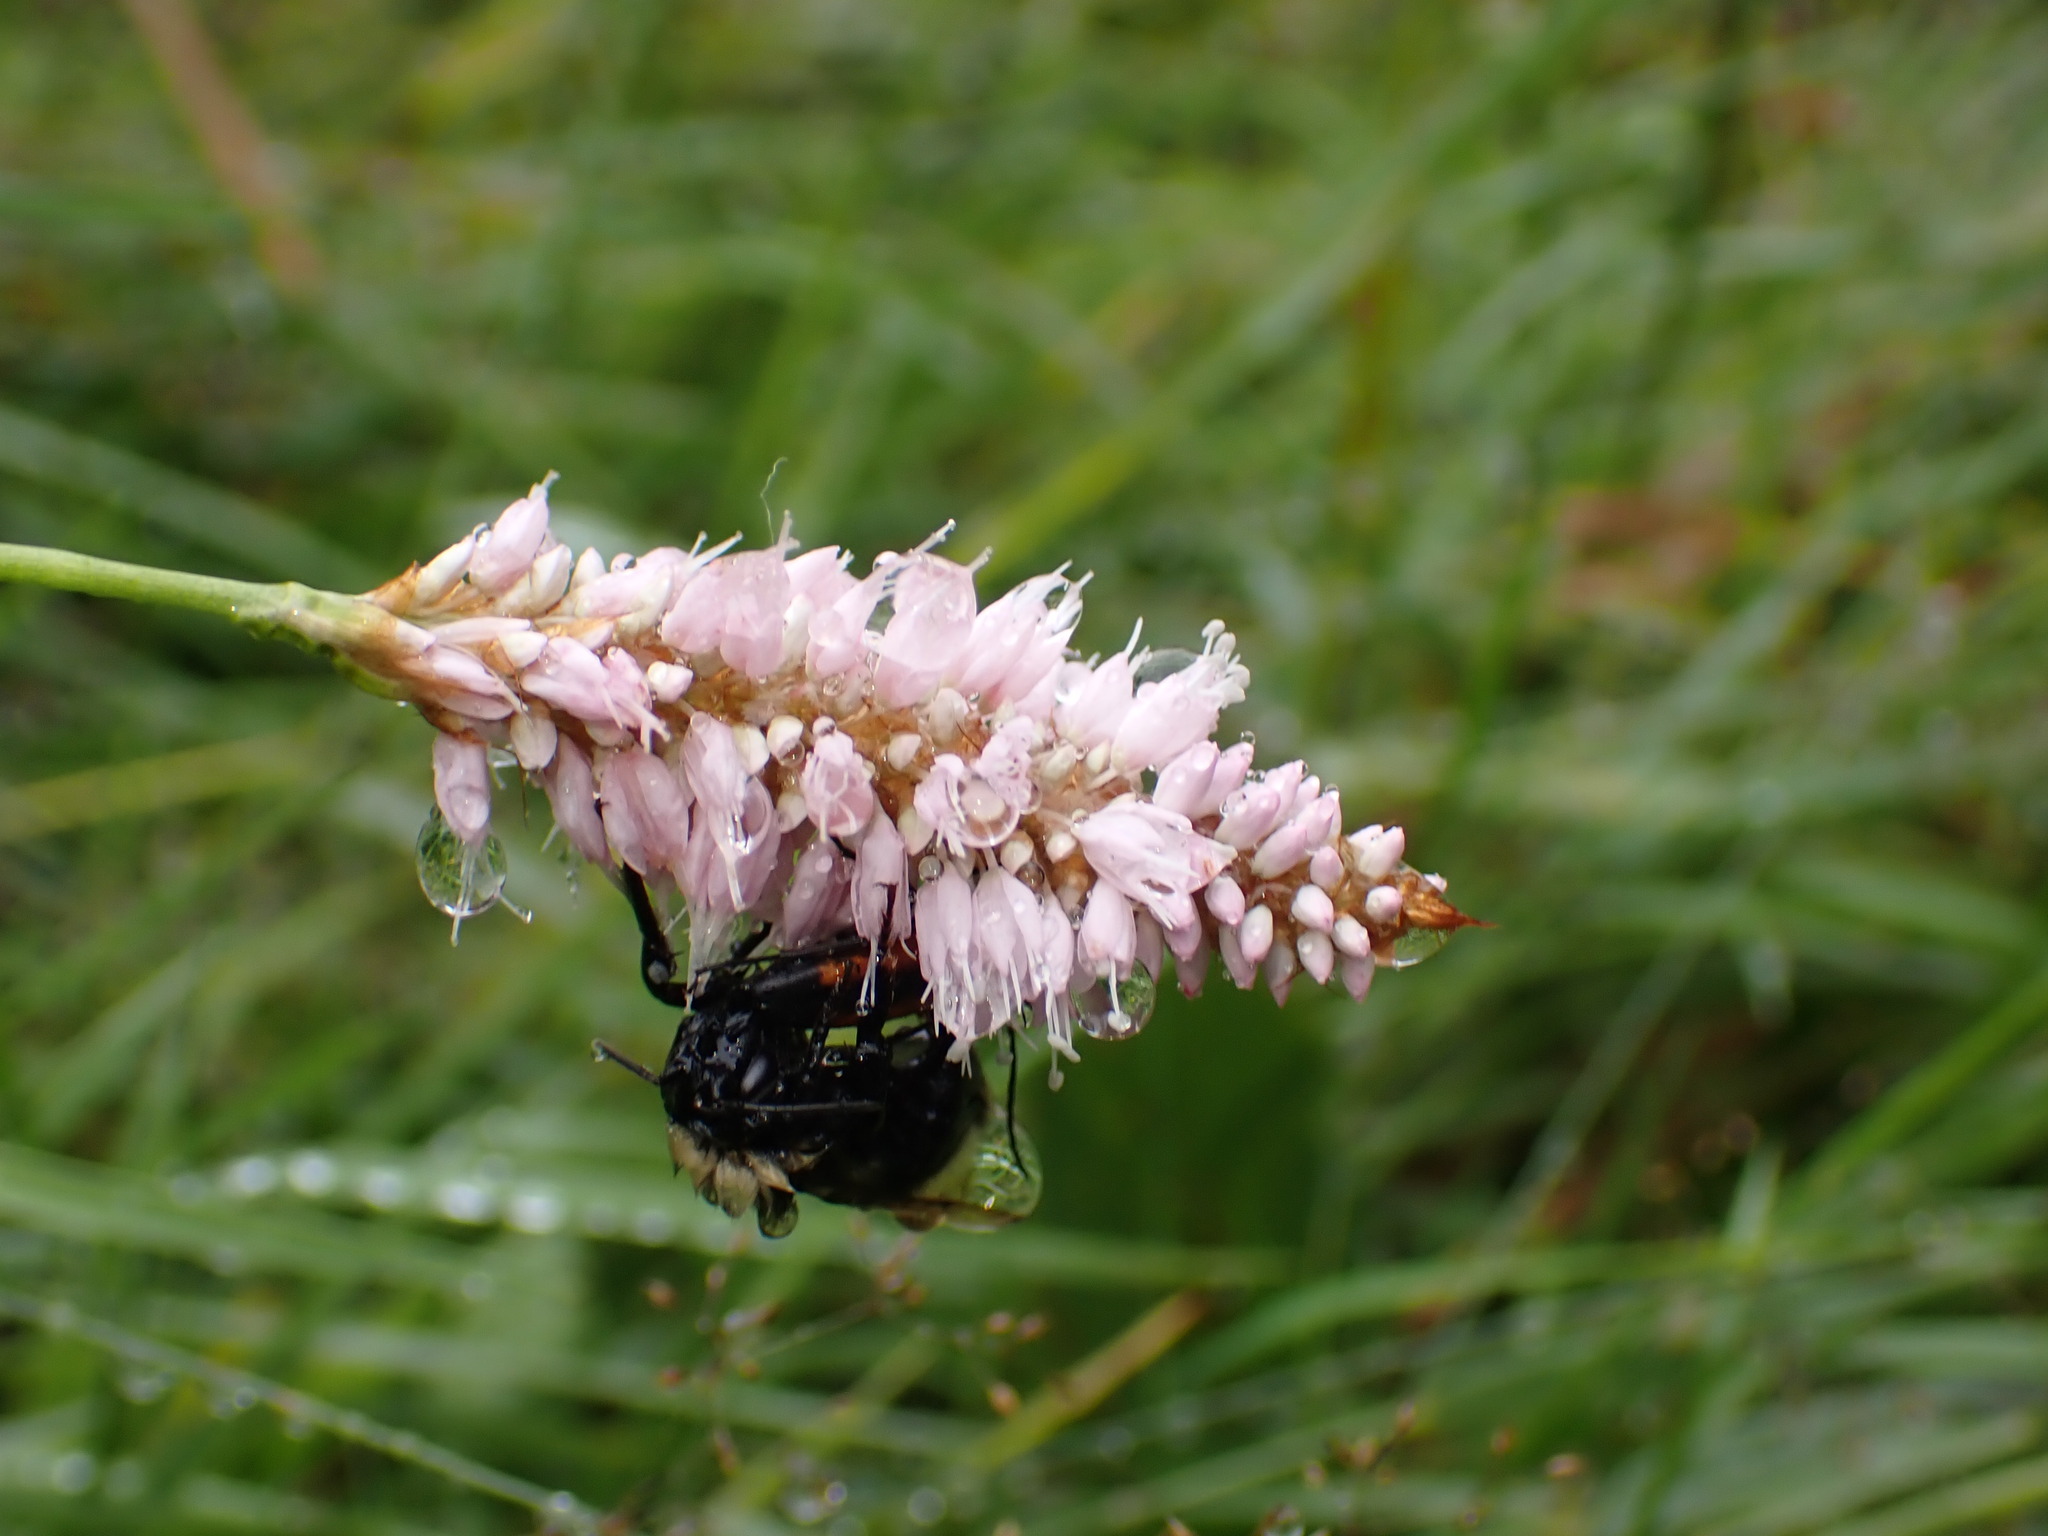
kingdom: Plantae
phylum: Tracheophyta
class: Magnoliopsida
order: Caryophyllales
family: Polygonaceae
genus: Bistorta
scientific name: Bistorta officinalis
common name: Common bistort
